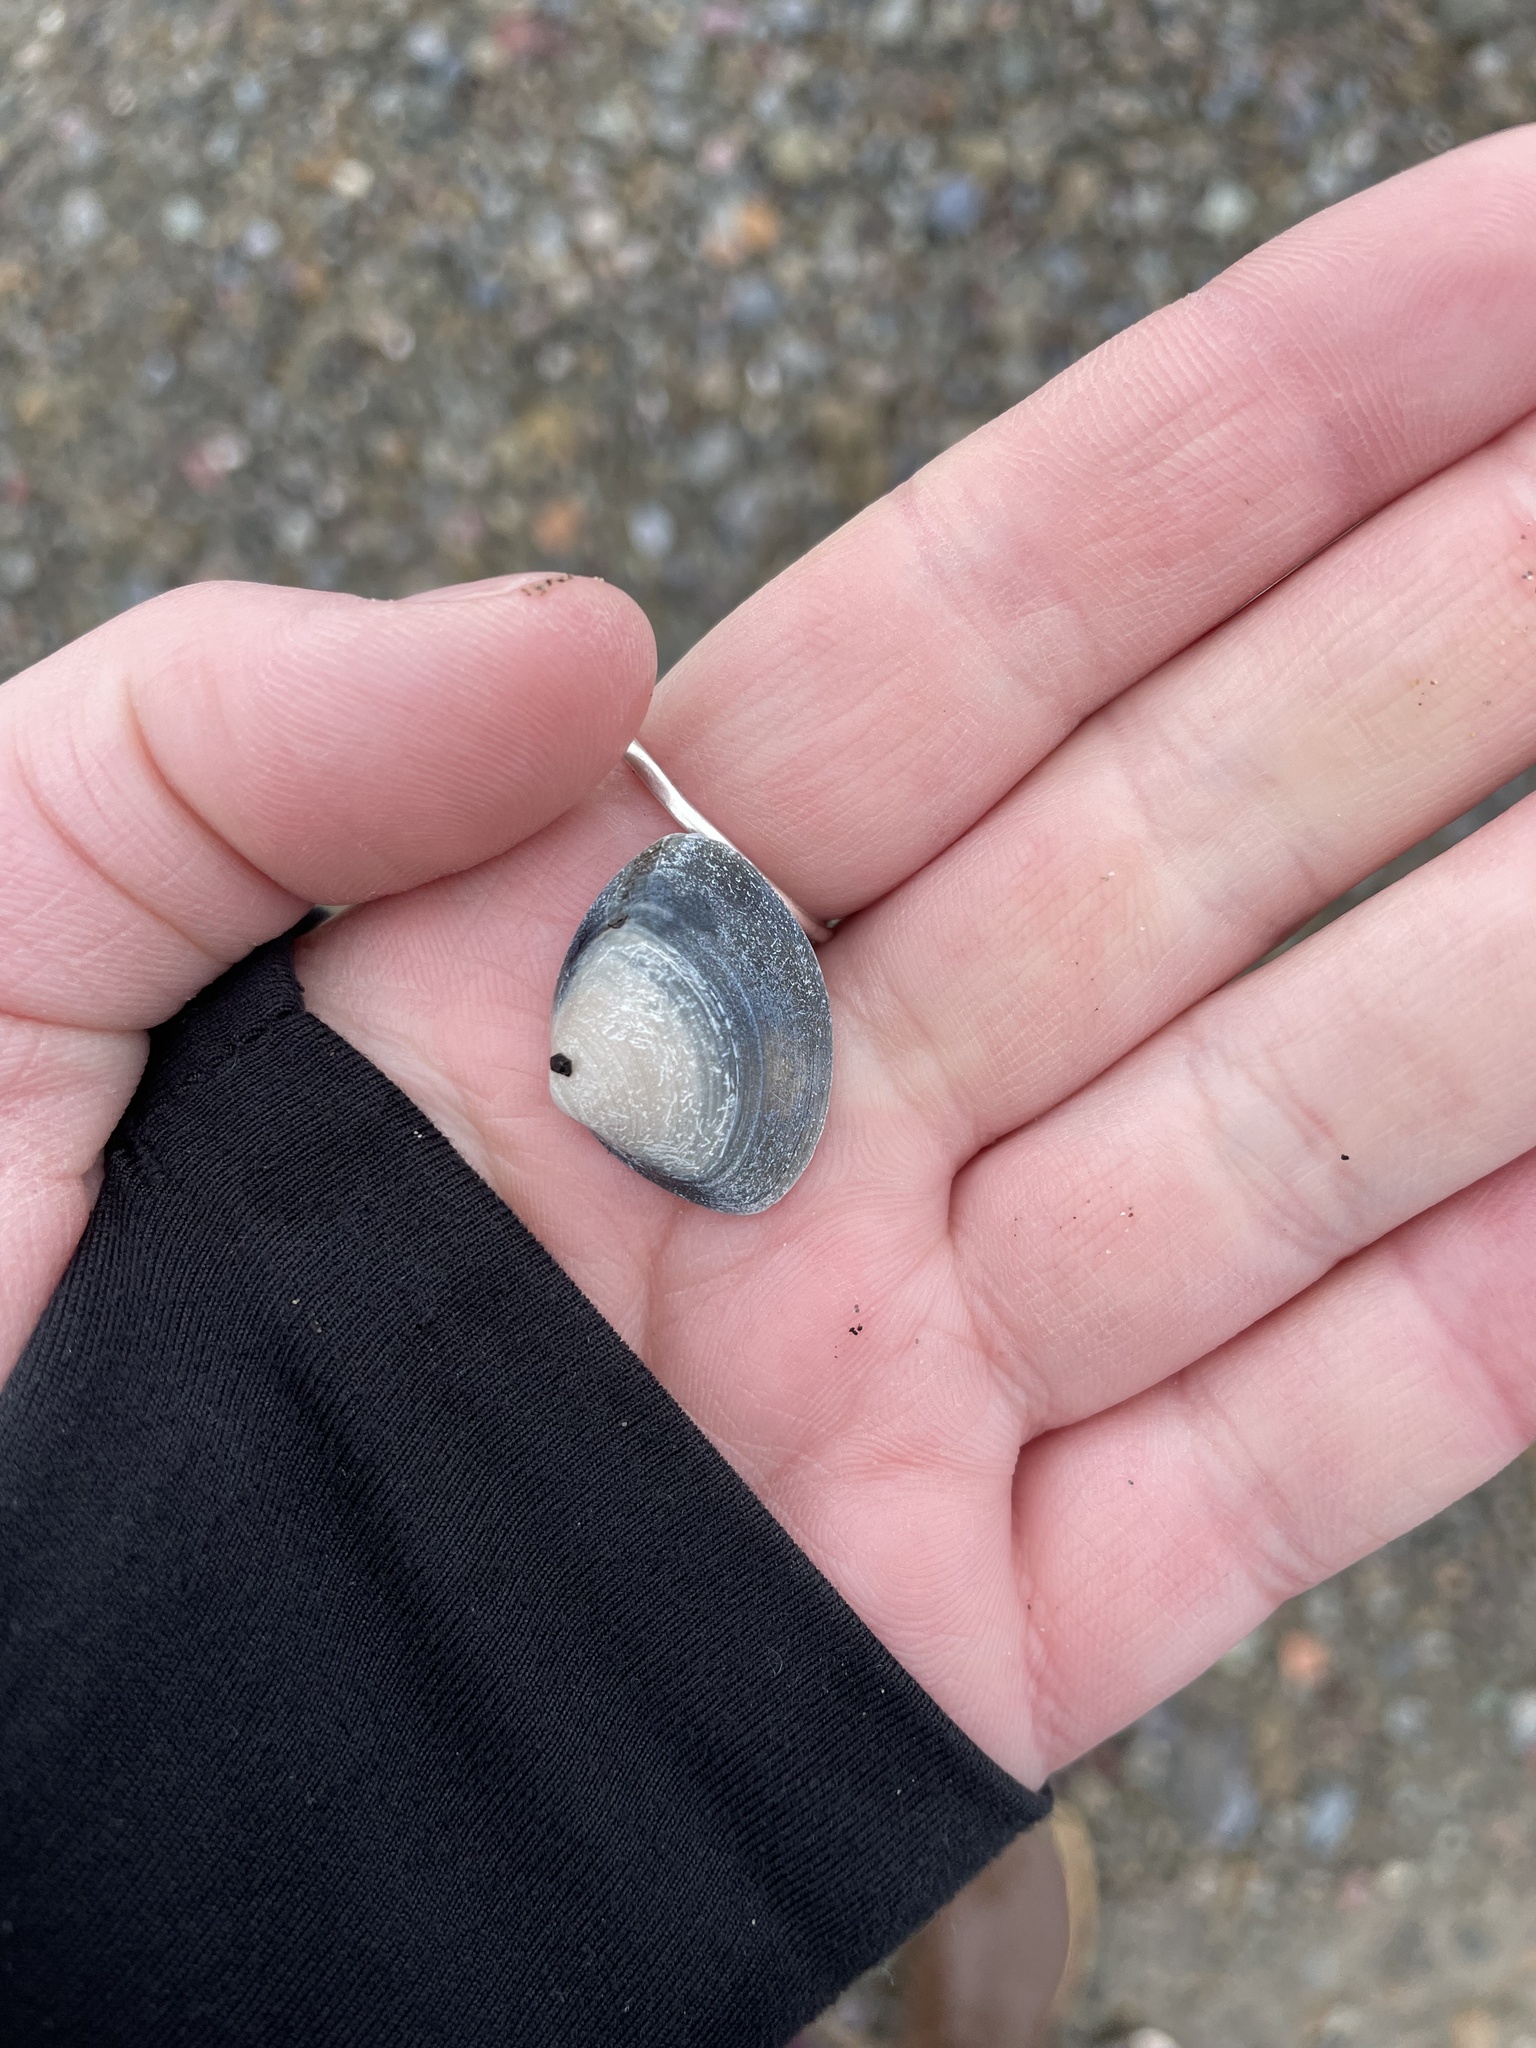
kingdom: Animalia
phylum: Mollusca
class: Bivalvia
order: Venerida
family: Mactridae
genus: Spisula
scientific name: Spisula solidissima
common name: Atlantic surf clam
